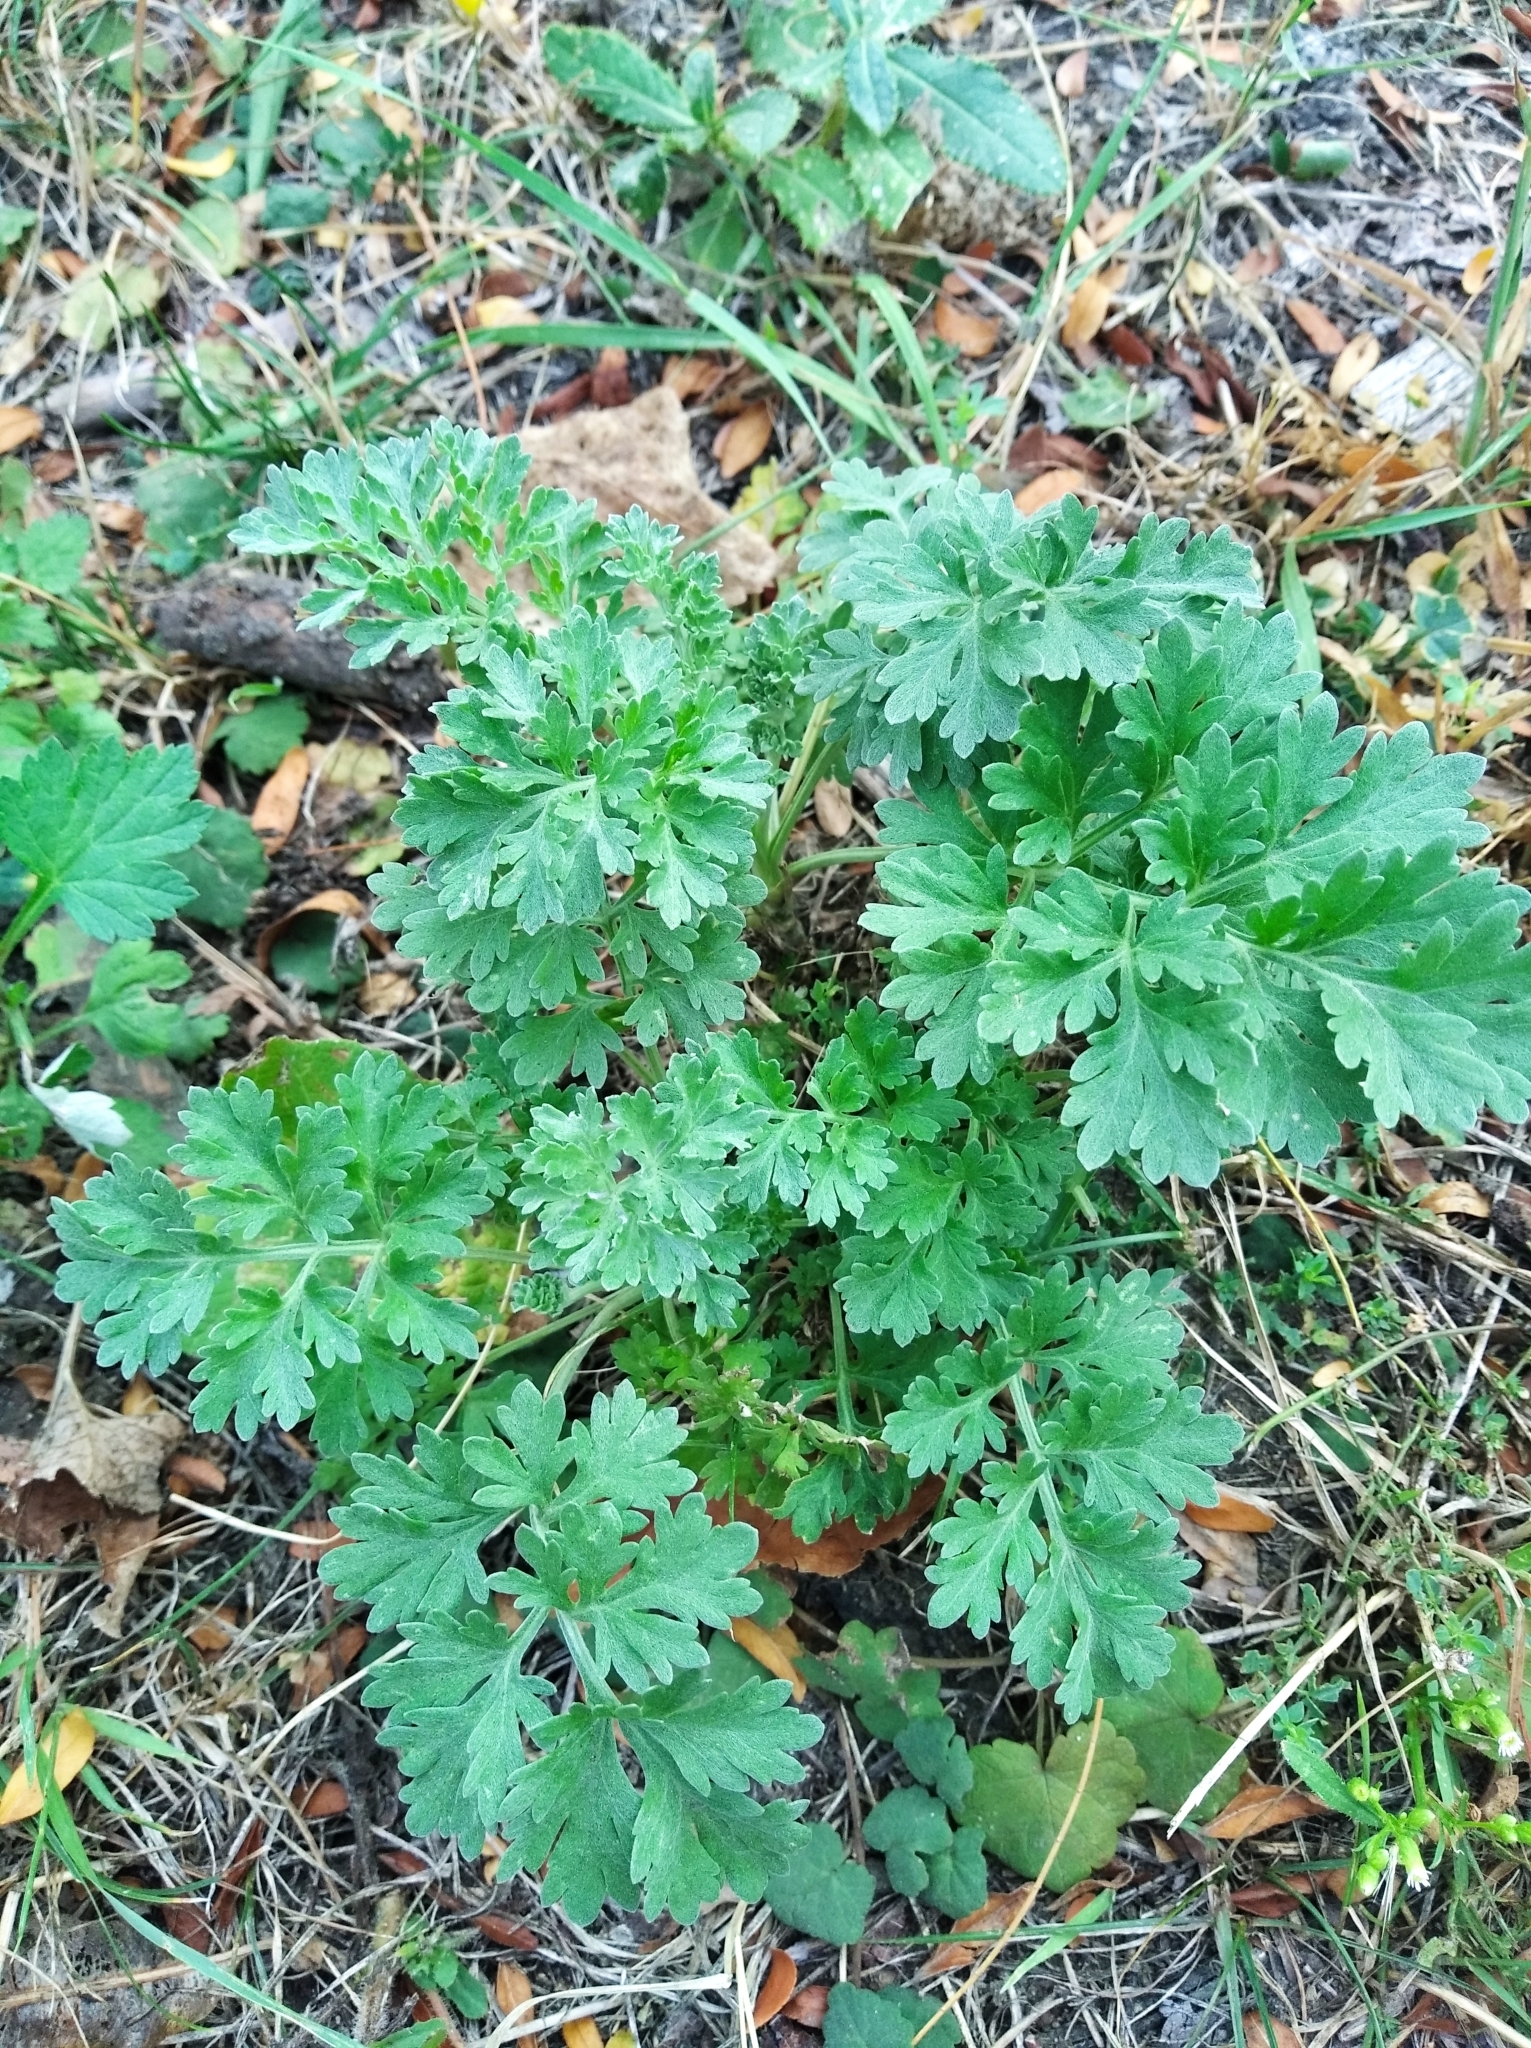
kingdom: Plantae
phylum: Tracheophyta
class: Magnoliopsida
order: Asterales
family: Asteraceae
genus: Artemisia
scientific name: Artemisia absinthium
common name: Wormwood
